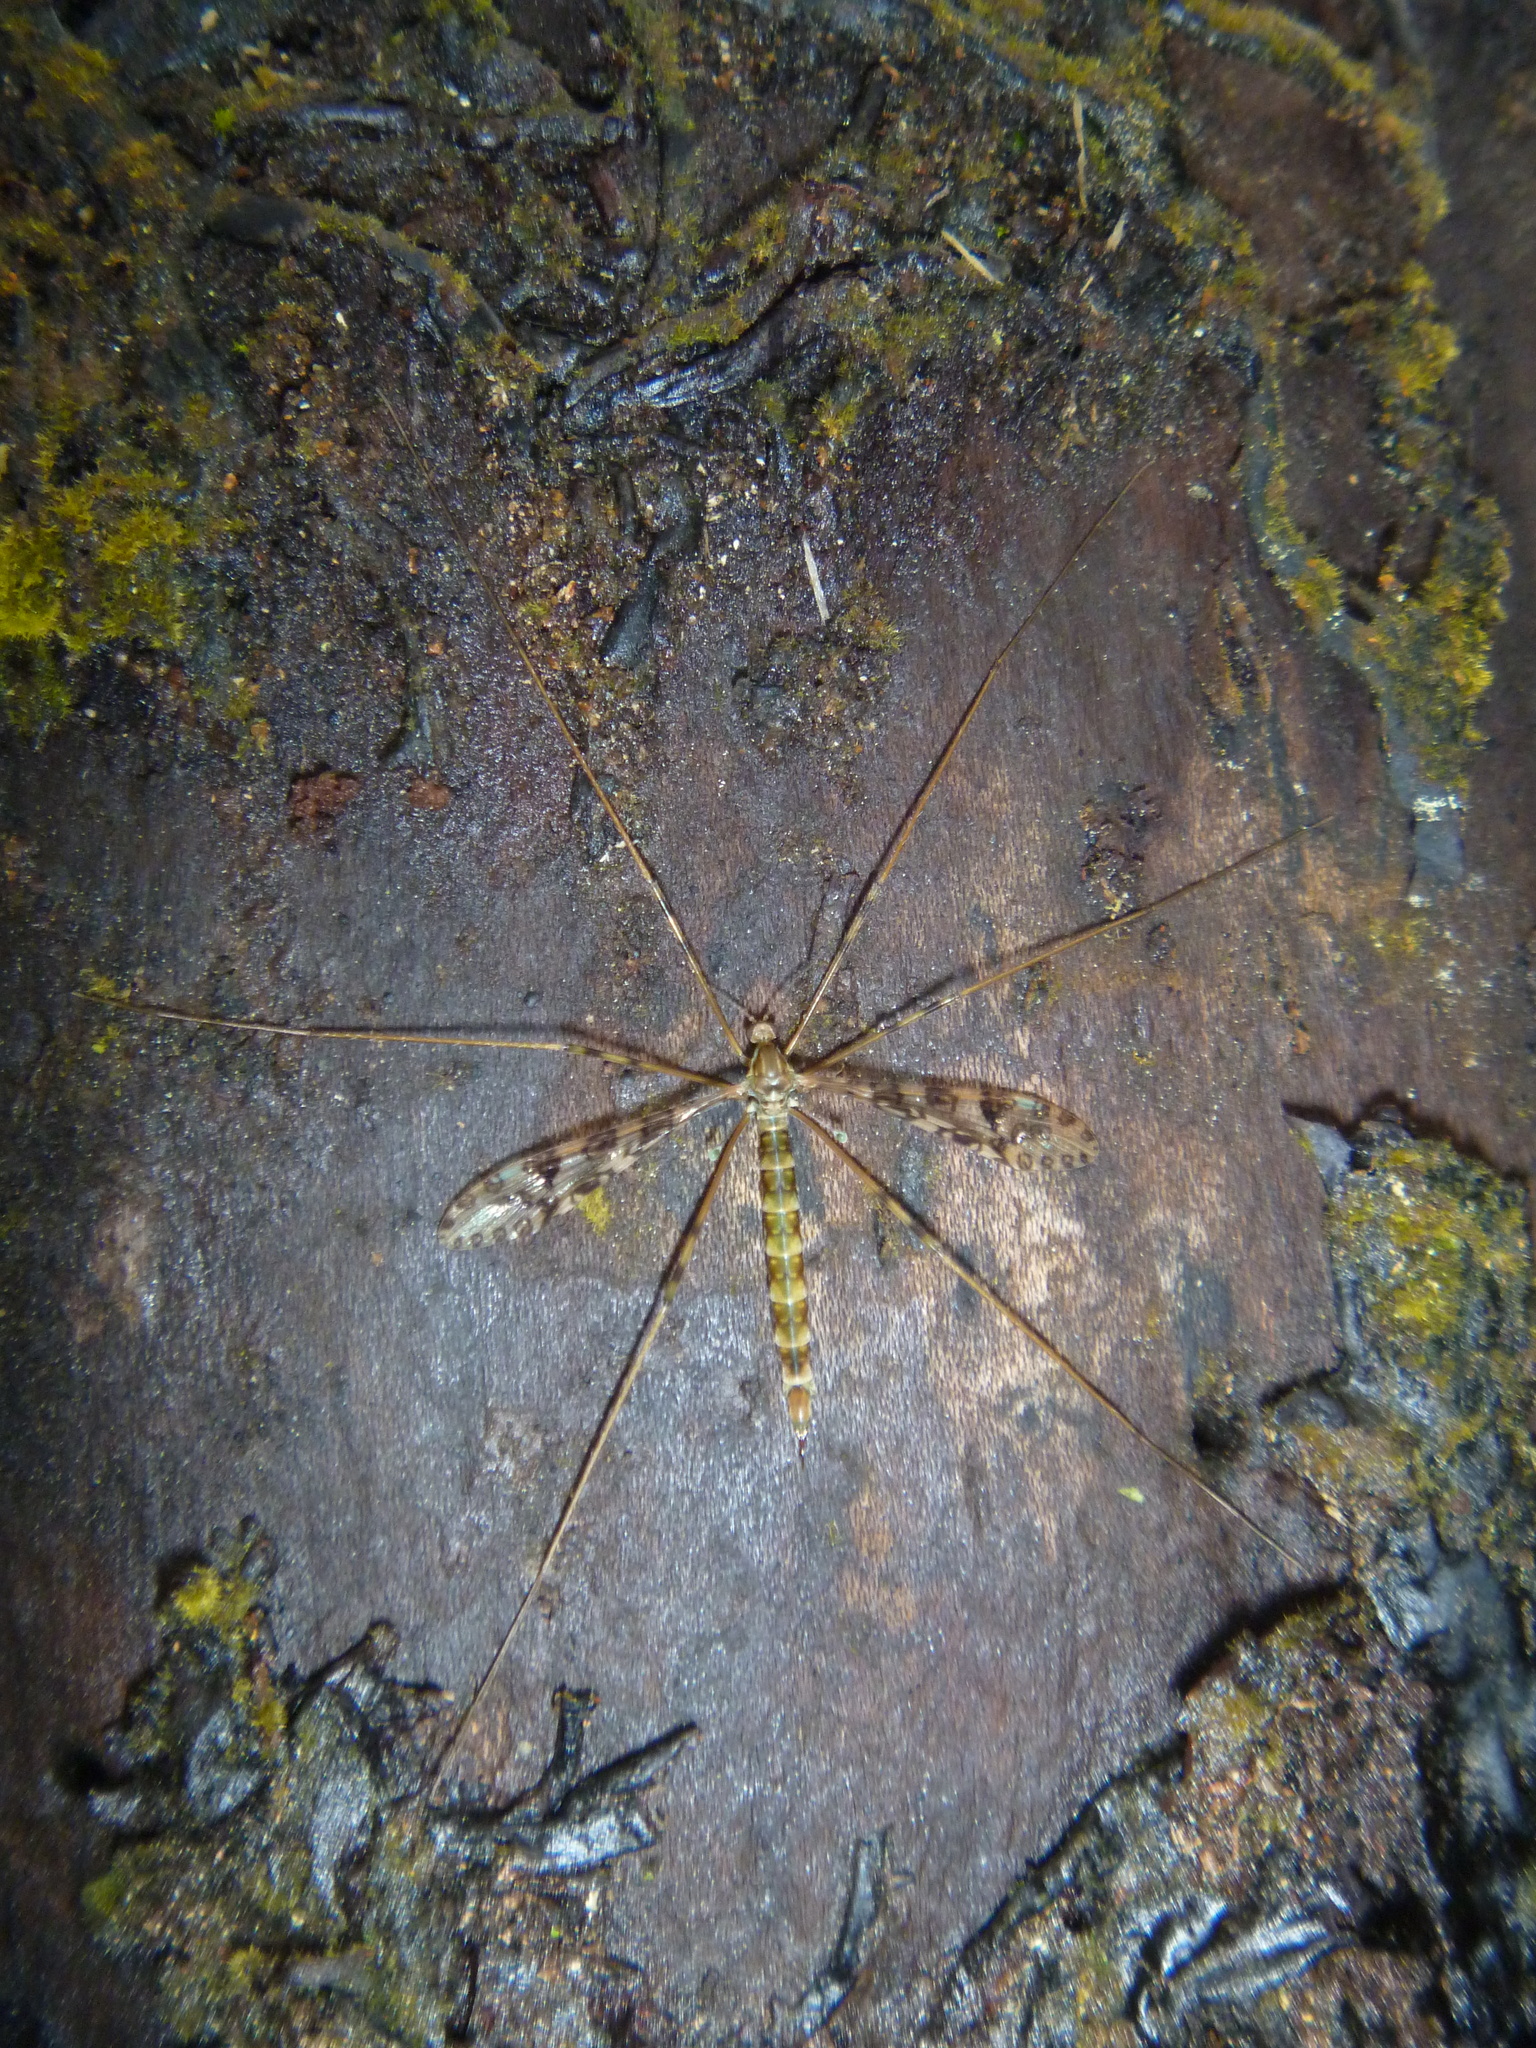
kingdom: Animalia
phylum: Arthropoda
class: Insecta
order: Diptera
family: Limoniidae
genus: Austrolimnophila
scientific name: Austrolimnophila argus
